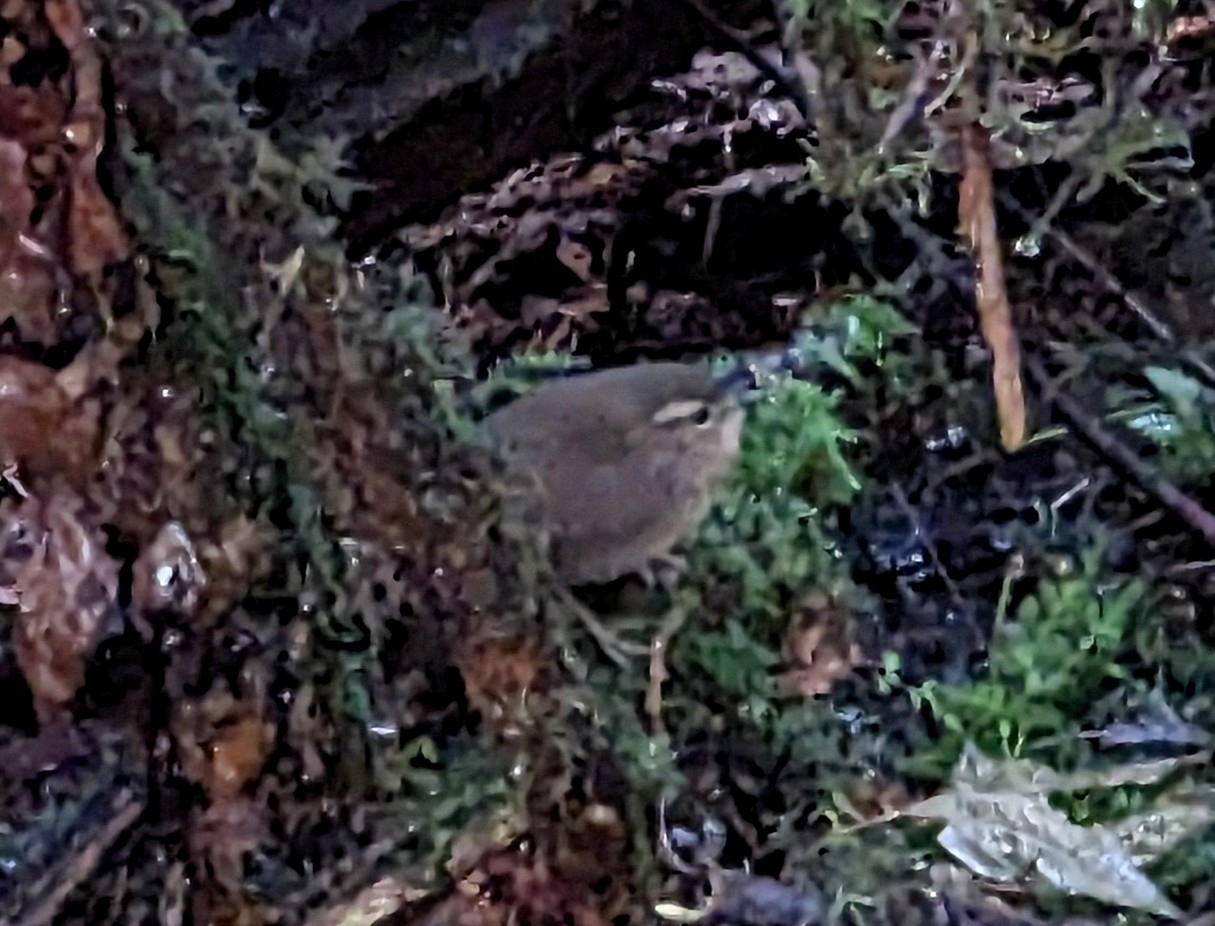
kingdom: Animalia
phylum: Chordata
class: Aves
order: Passeriformes
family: Troglodytidae
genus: Troglodytes
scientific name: Troglodytes pacificus
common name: Pacific wren
